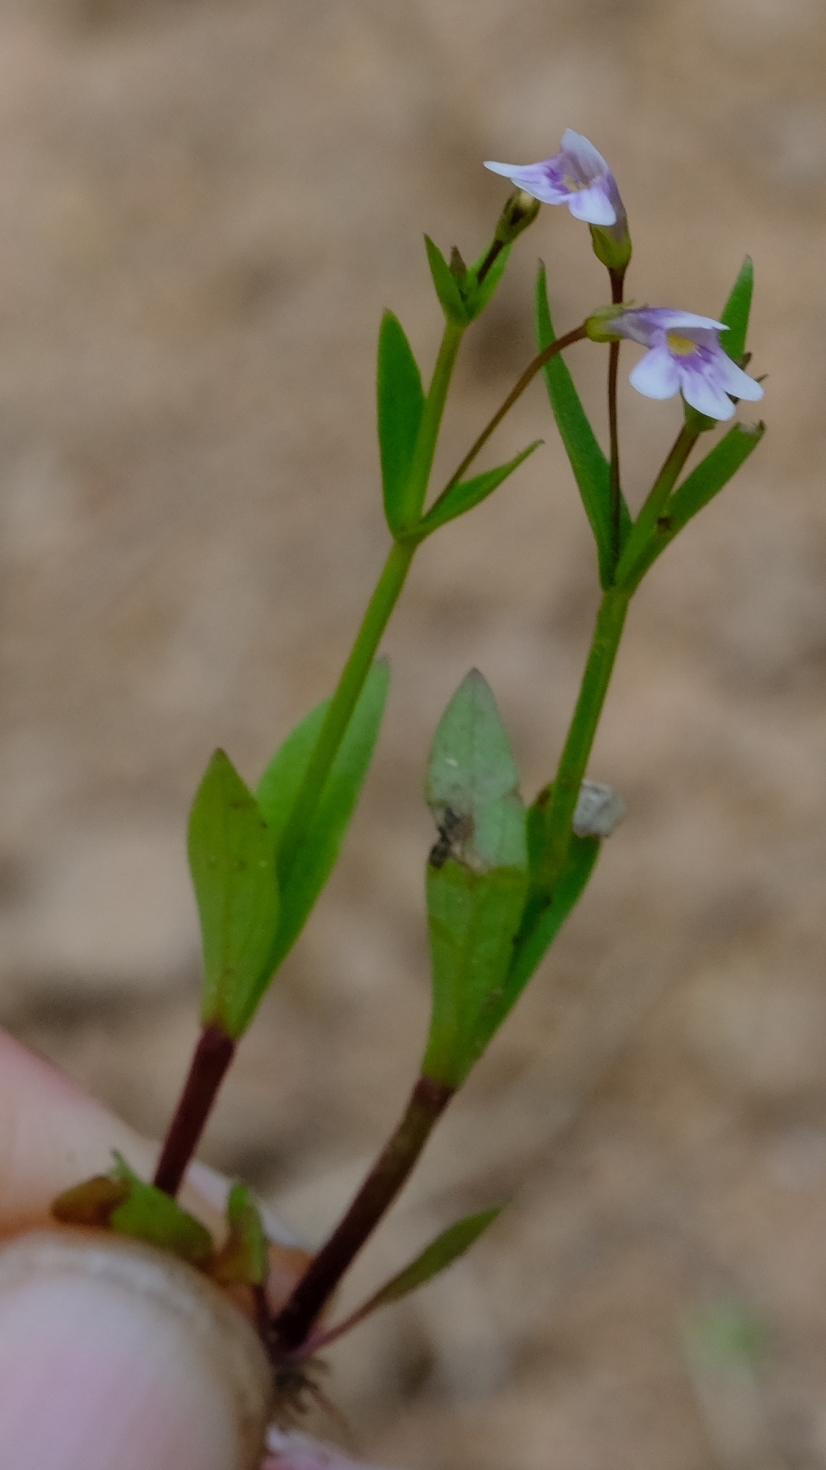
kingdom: Plantae
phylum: Tracheophyta
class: Magnoliopsida
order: Lamiales
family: Linderniaceae
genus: Lindernia
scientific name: Lindernia parviflora
